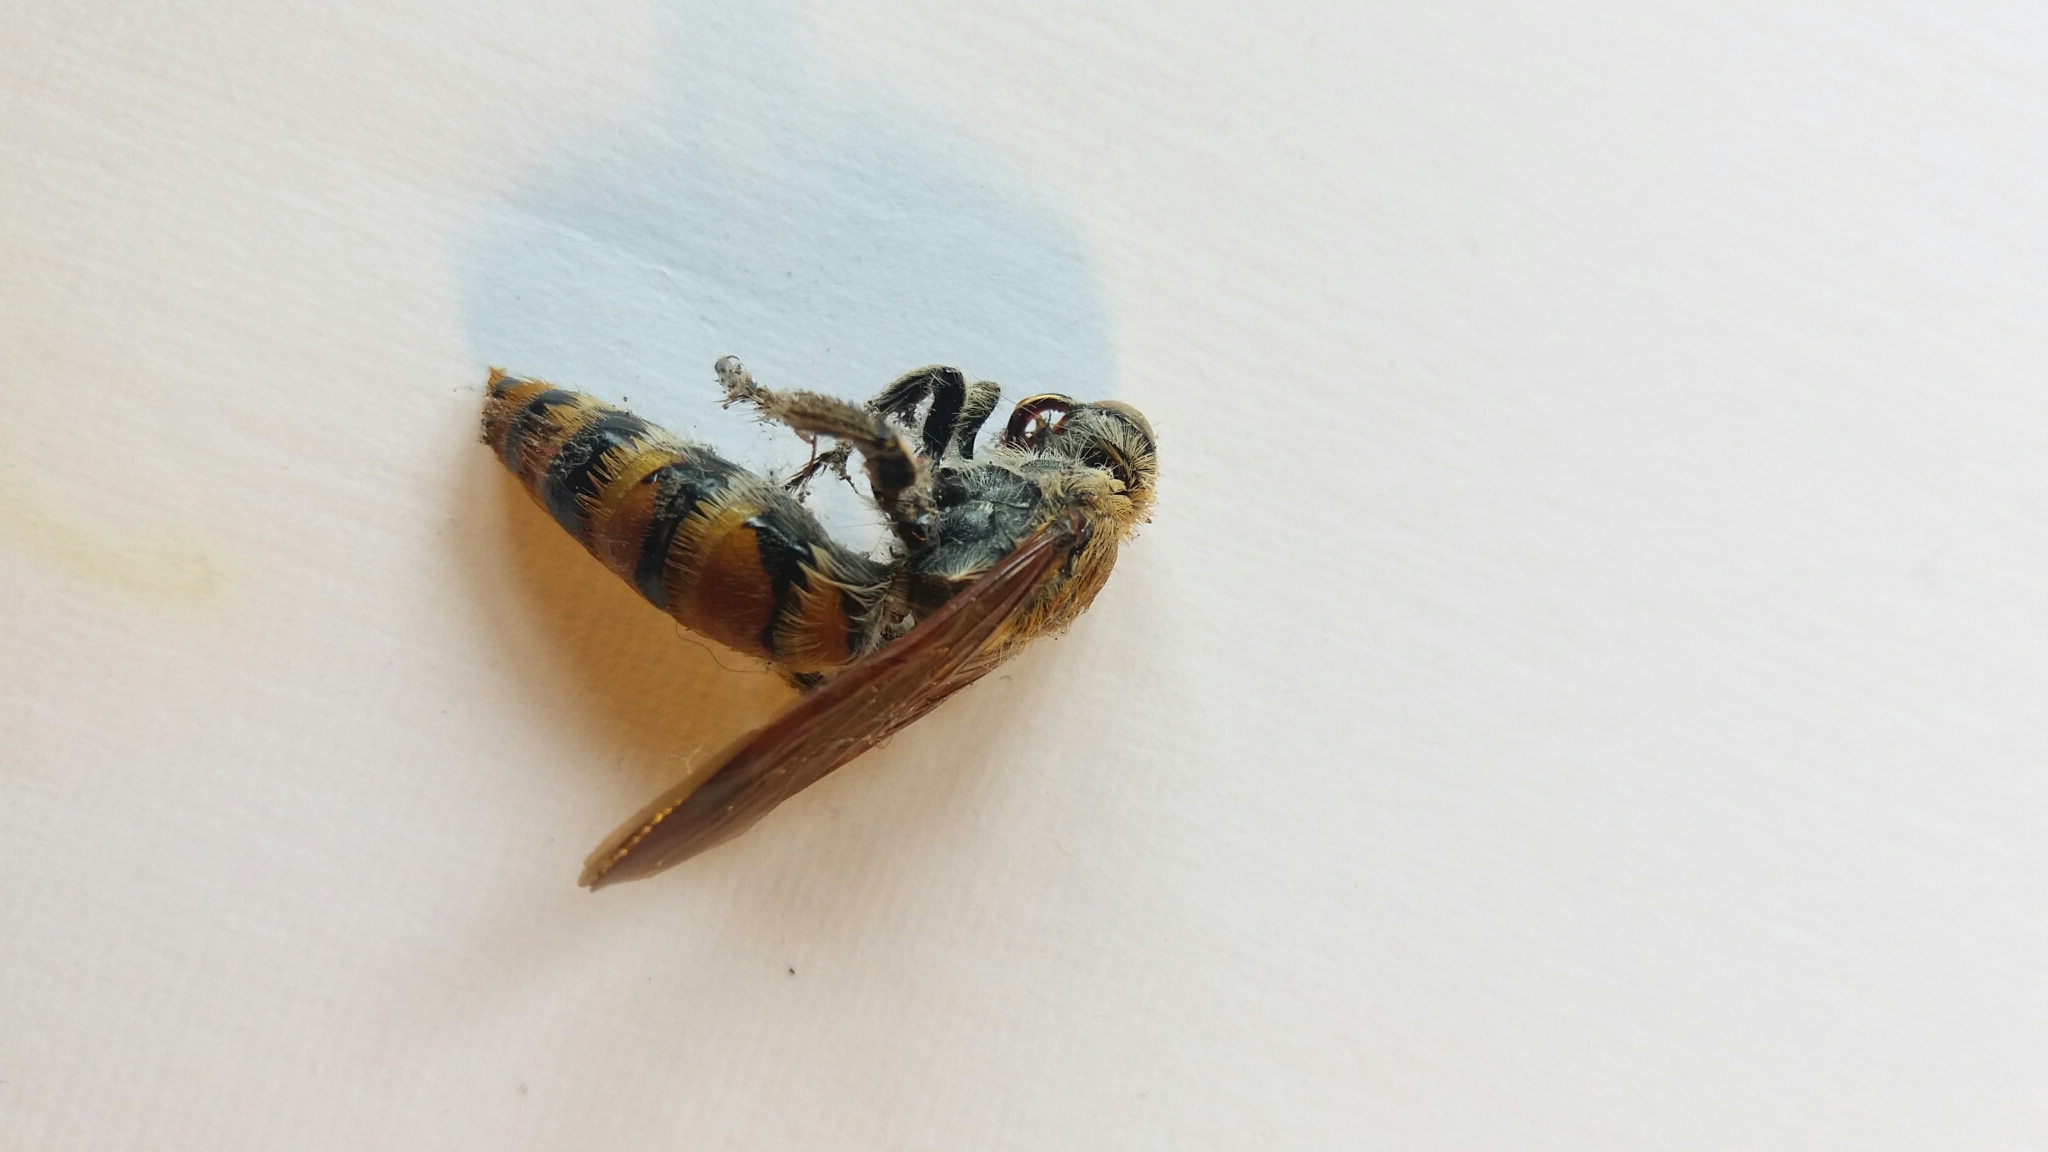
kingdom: Animalia
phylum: Arthropoda
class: Insecta
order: Hymenoptera
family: Scoliidae
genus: Radumeris
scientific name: Radumeris tasmaniensis
